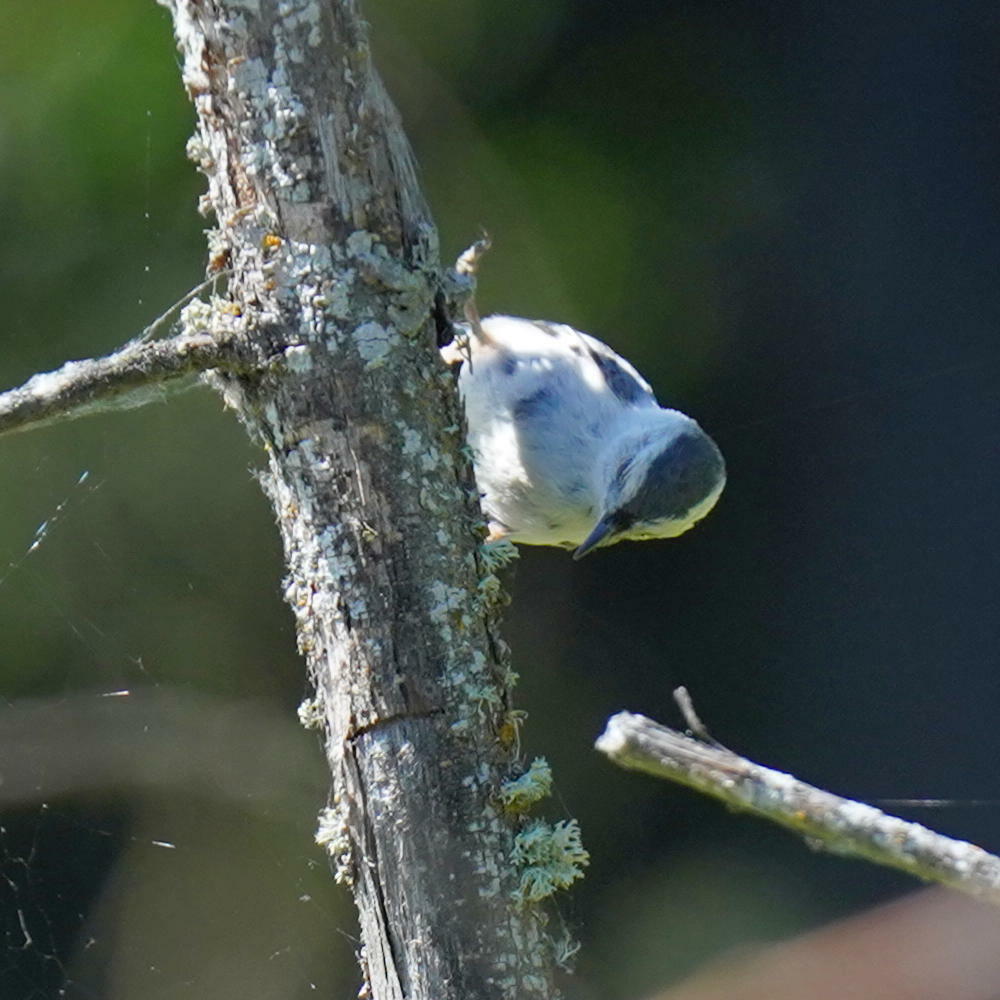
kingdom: Animalia
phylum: Chordata
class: Aves
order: Passeriformes
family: Sittidae
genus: Sitta
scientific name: Sitta carolinensis
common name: White-breasted nuthatch
